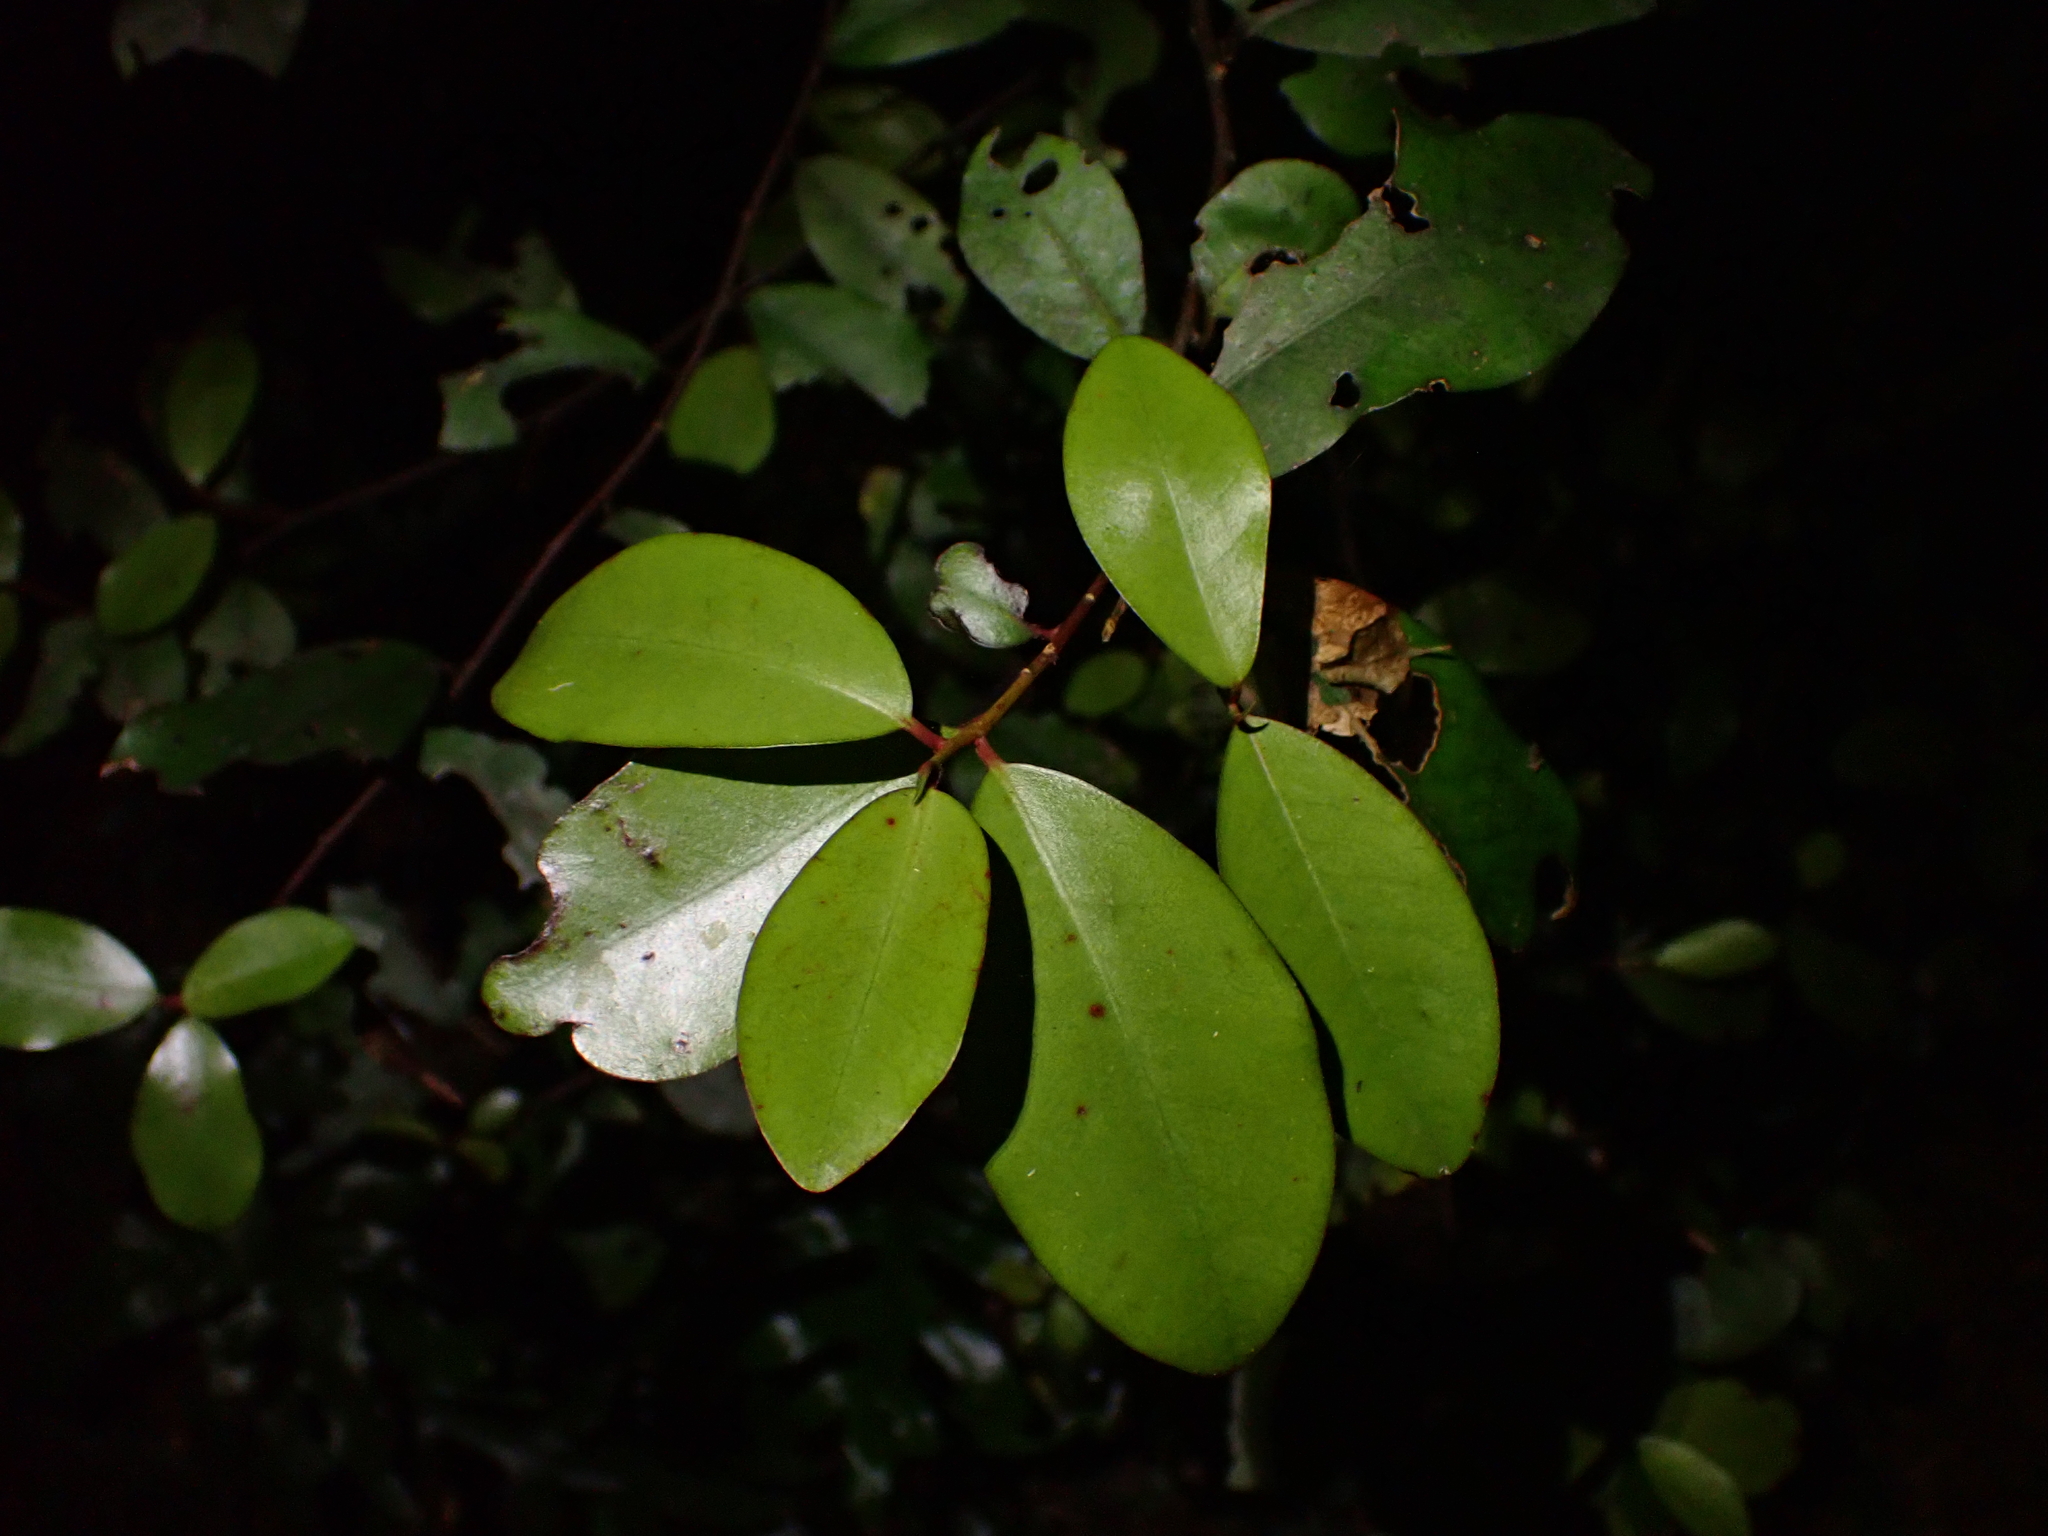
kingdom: Plantae
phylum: Tracheophyta
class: Magnoliopsida
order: Canellales
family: Winteraceae
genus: Pseudowintera
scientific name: Pseudowintera colorata
